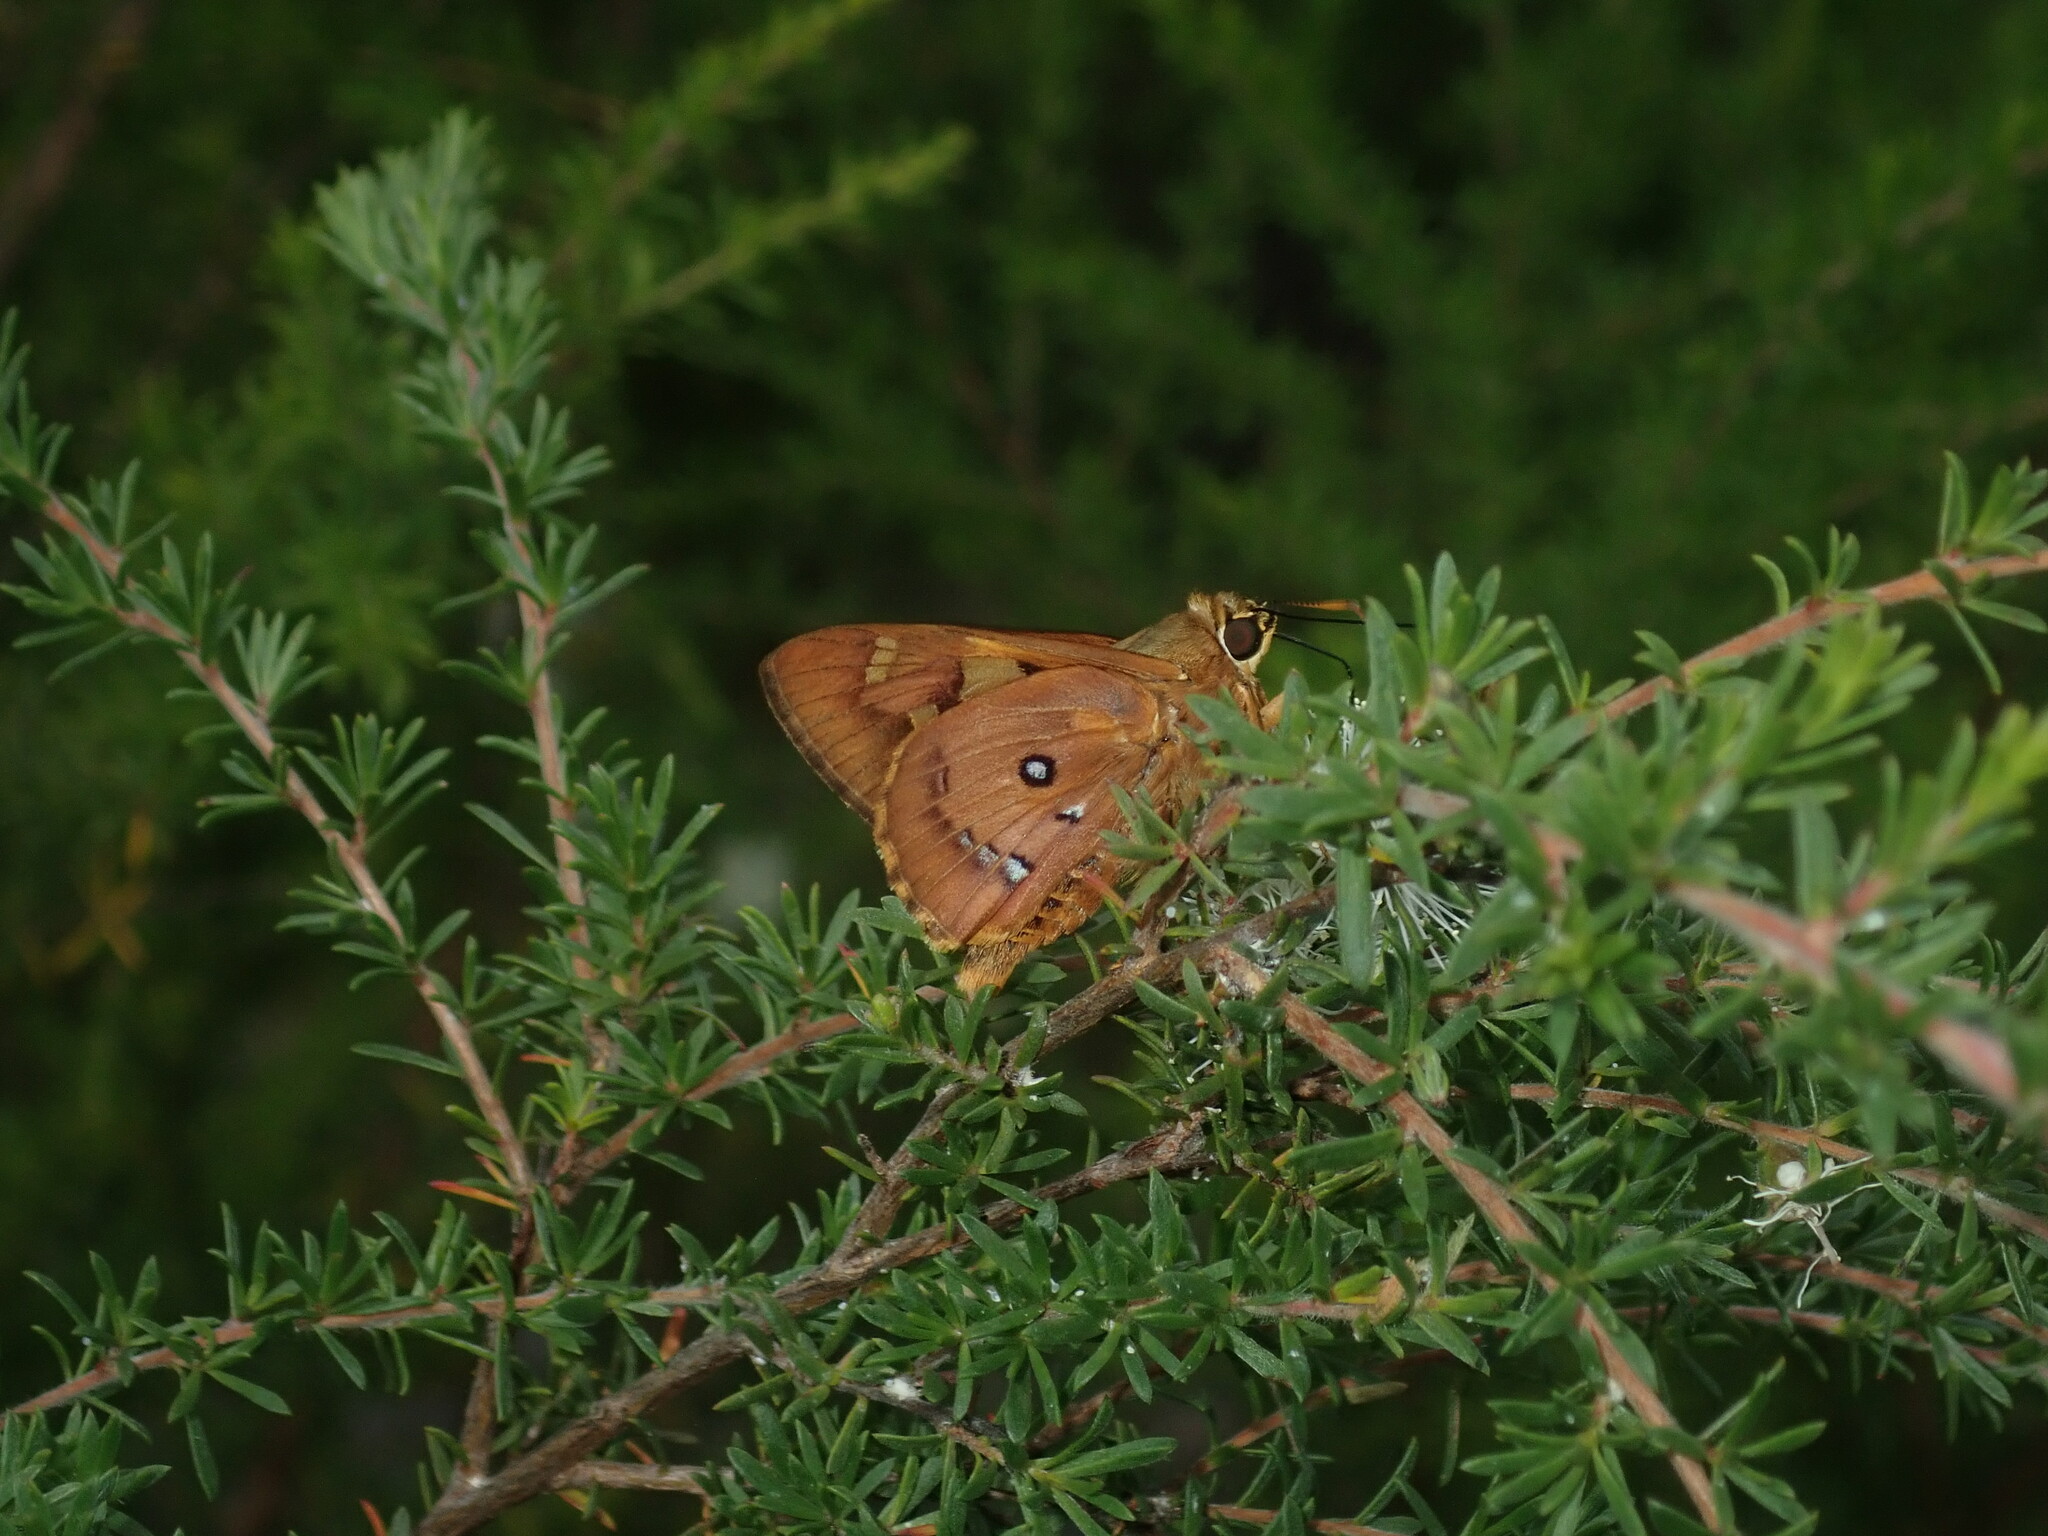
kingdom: Animalia
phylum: Arthropoda
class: Insecta
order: Lepidoptera
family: Hesperiidae
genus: Trapezites
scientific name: Trapezites symmomus
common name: Splendid ochre
